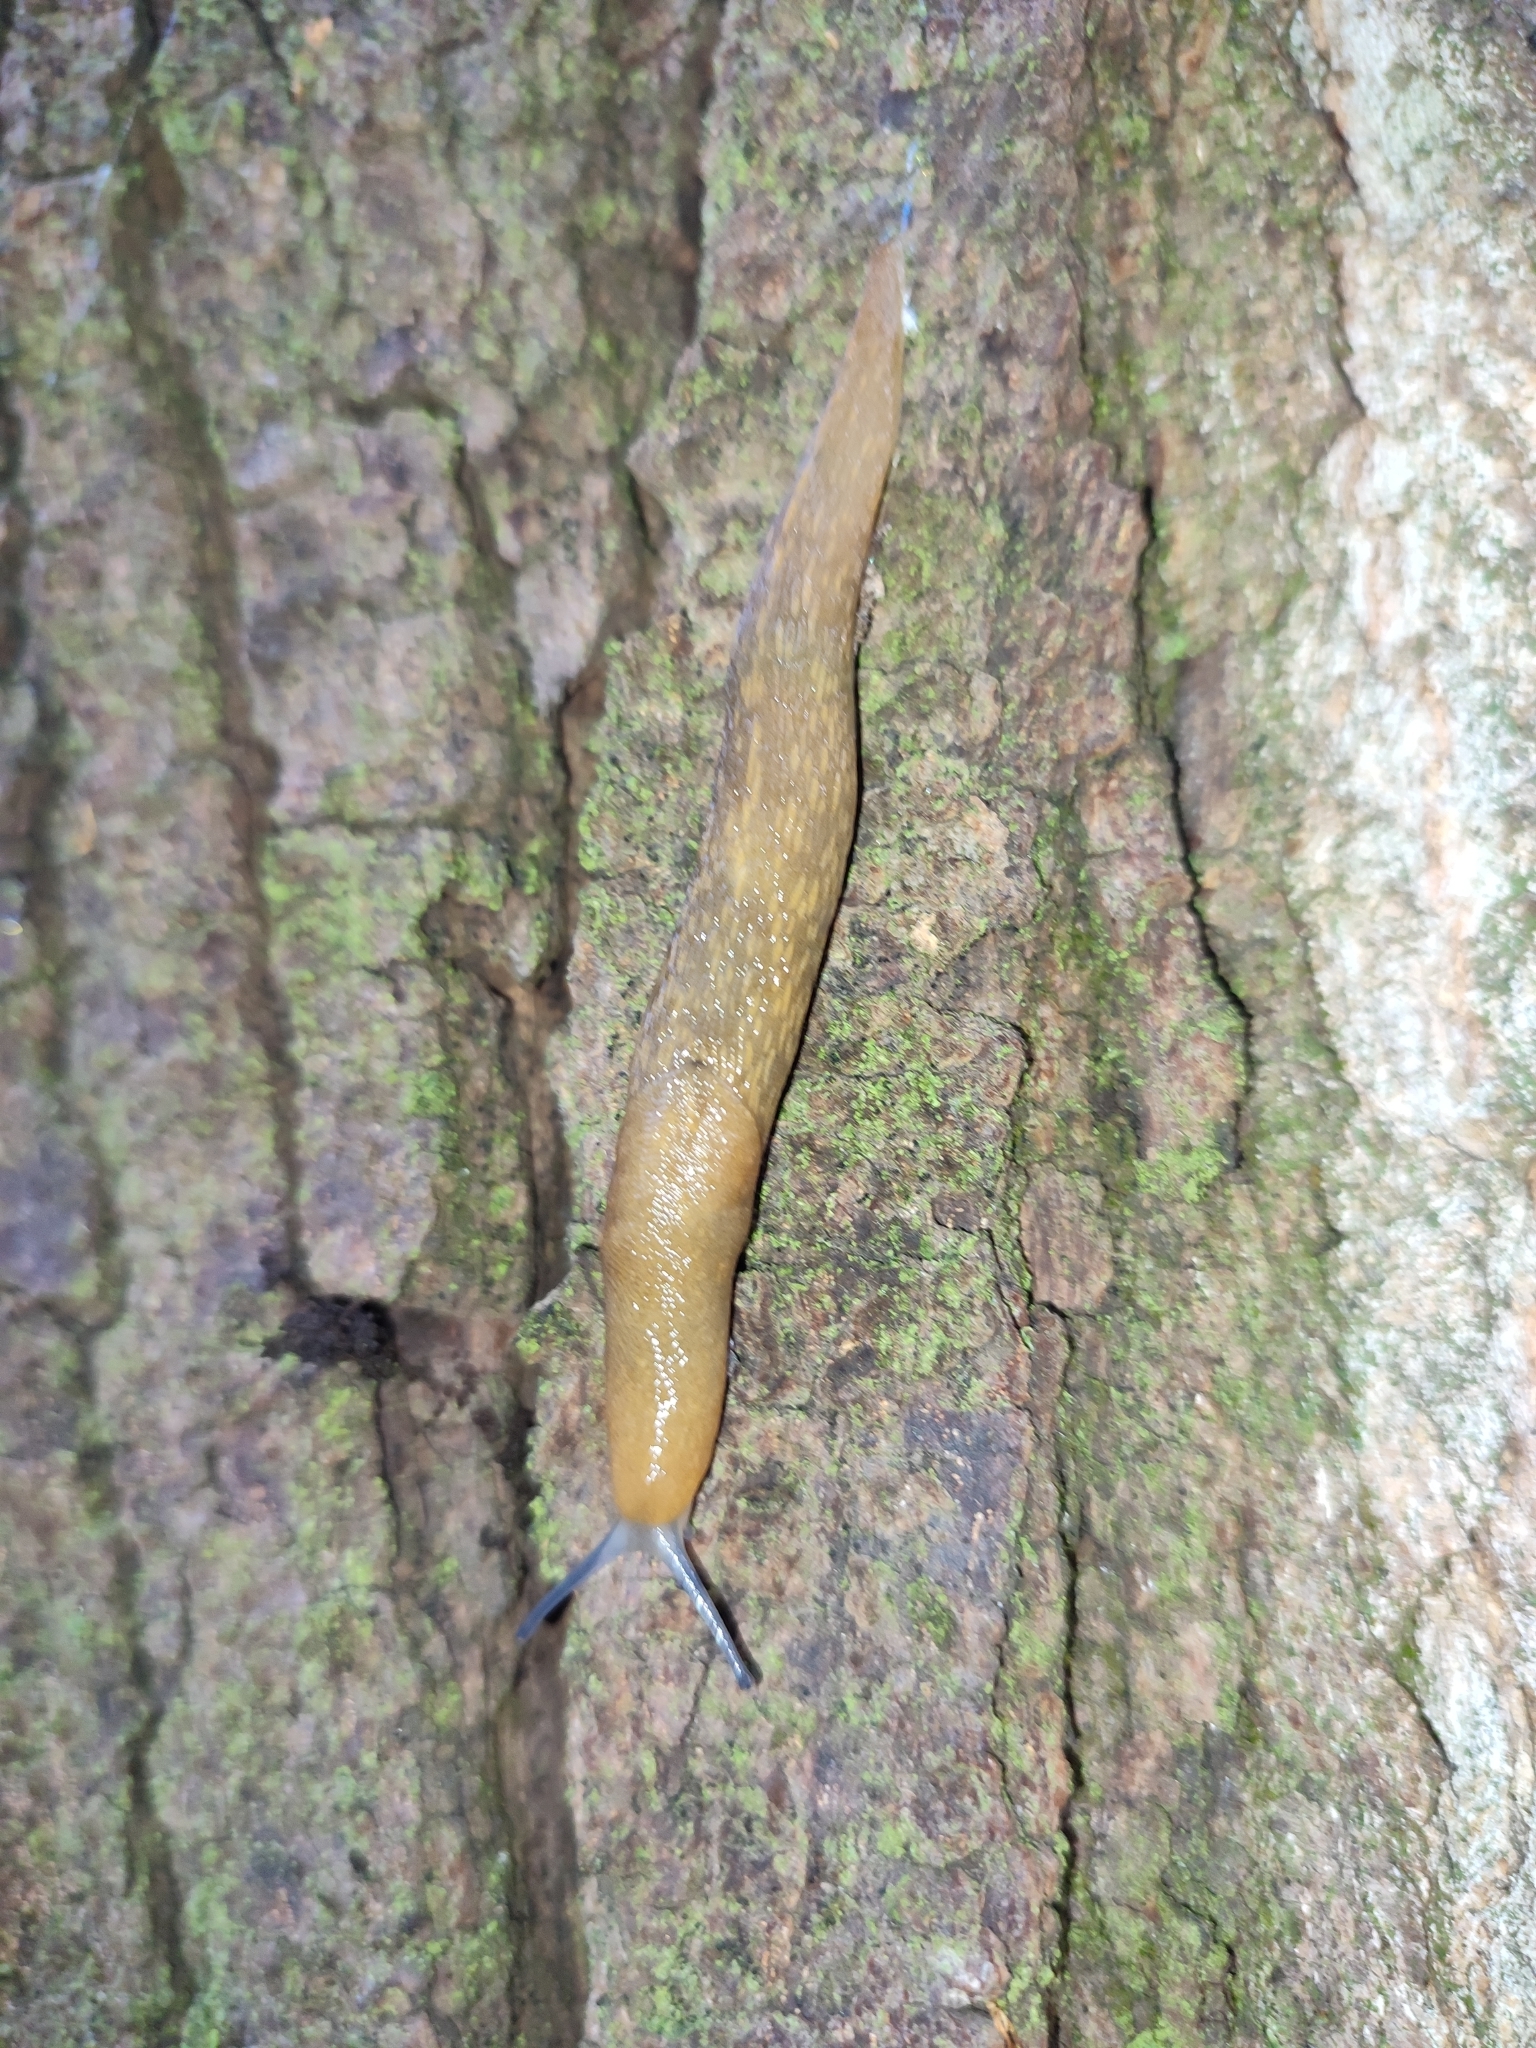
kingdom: Animalia
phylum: Mollusca
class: Gastropoda
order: Stylommatophora
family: Limacidae
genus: Limacus
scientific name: Limacus flavus
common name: Yellow gardenslug
